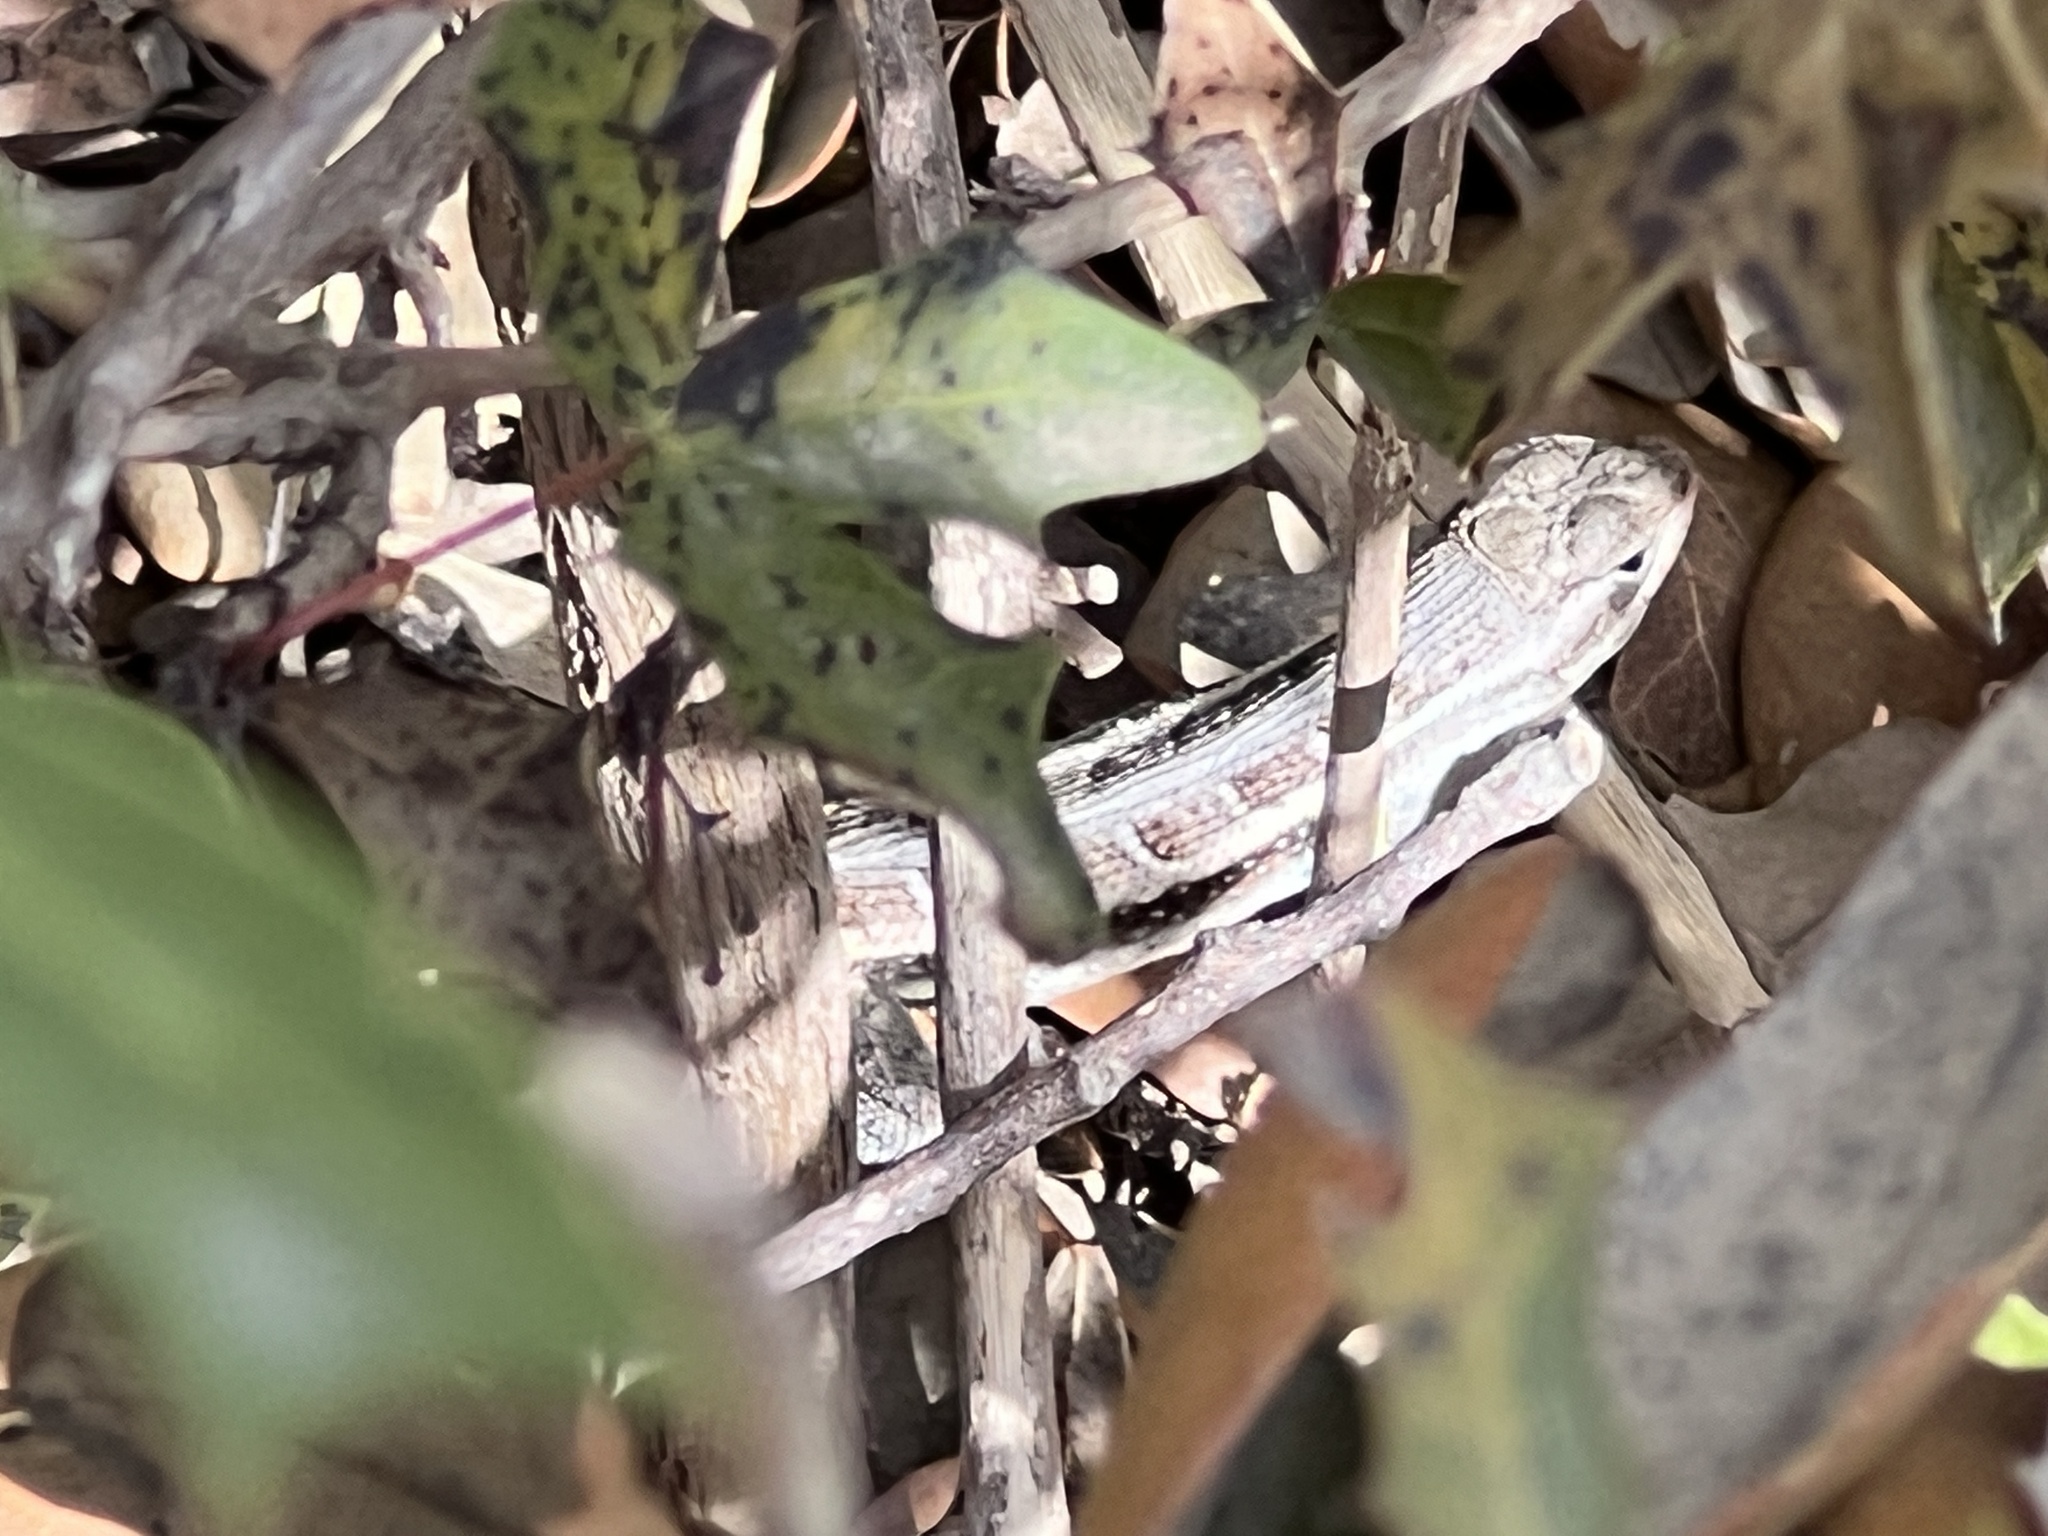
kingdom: Animalia
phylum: Chordata
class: Squamata
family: Phrynosomatidae
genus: Sceloporus
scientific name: Sceloporus variabilis
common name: Rosebelly lizard
